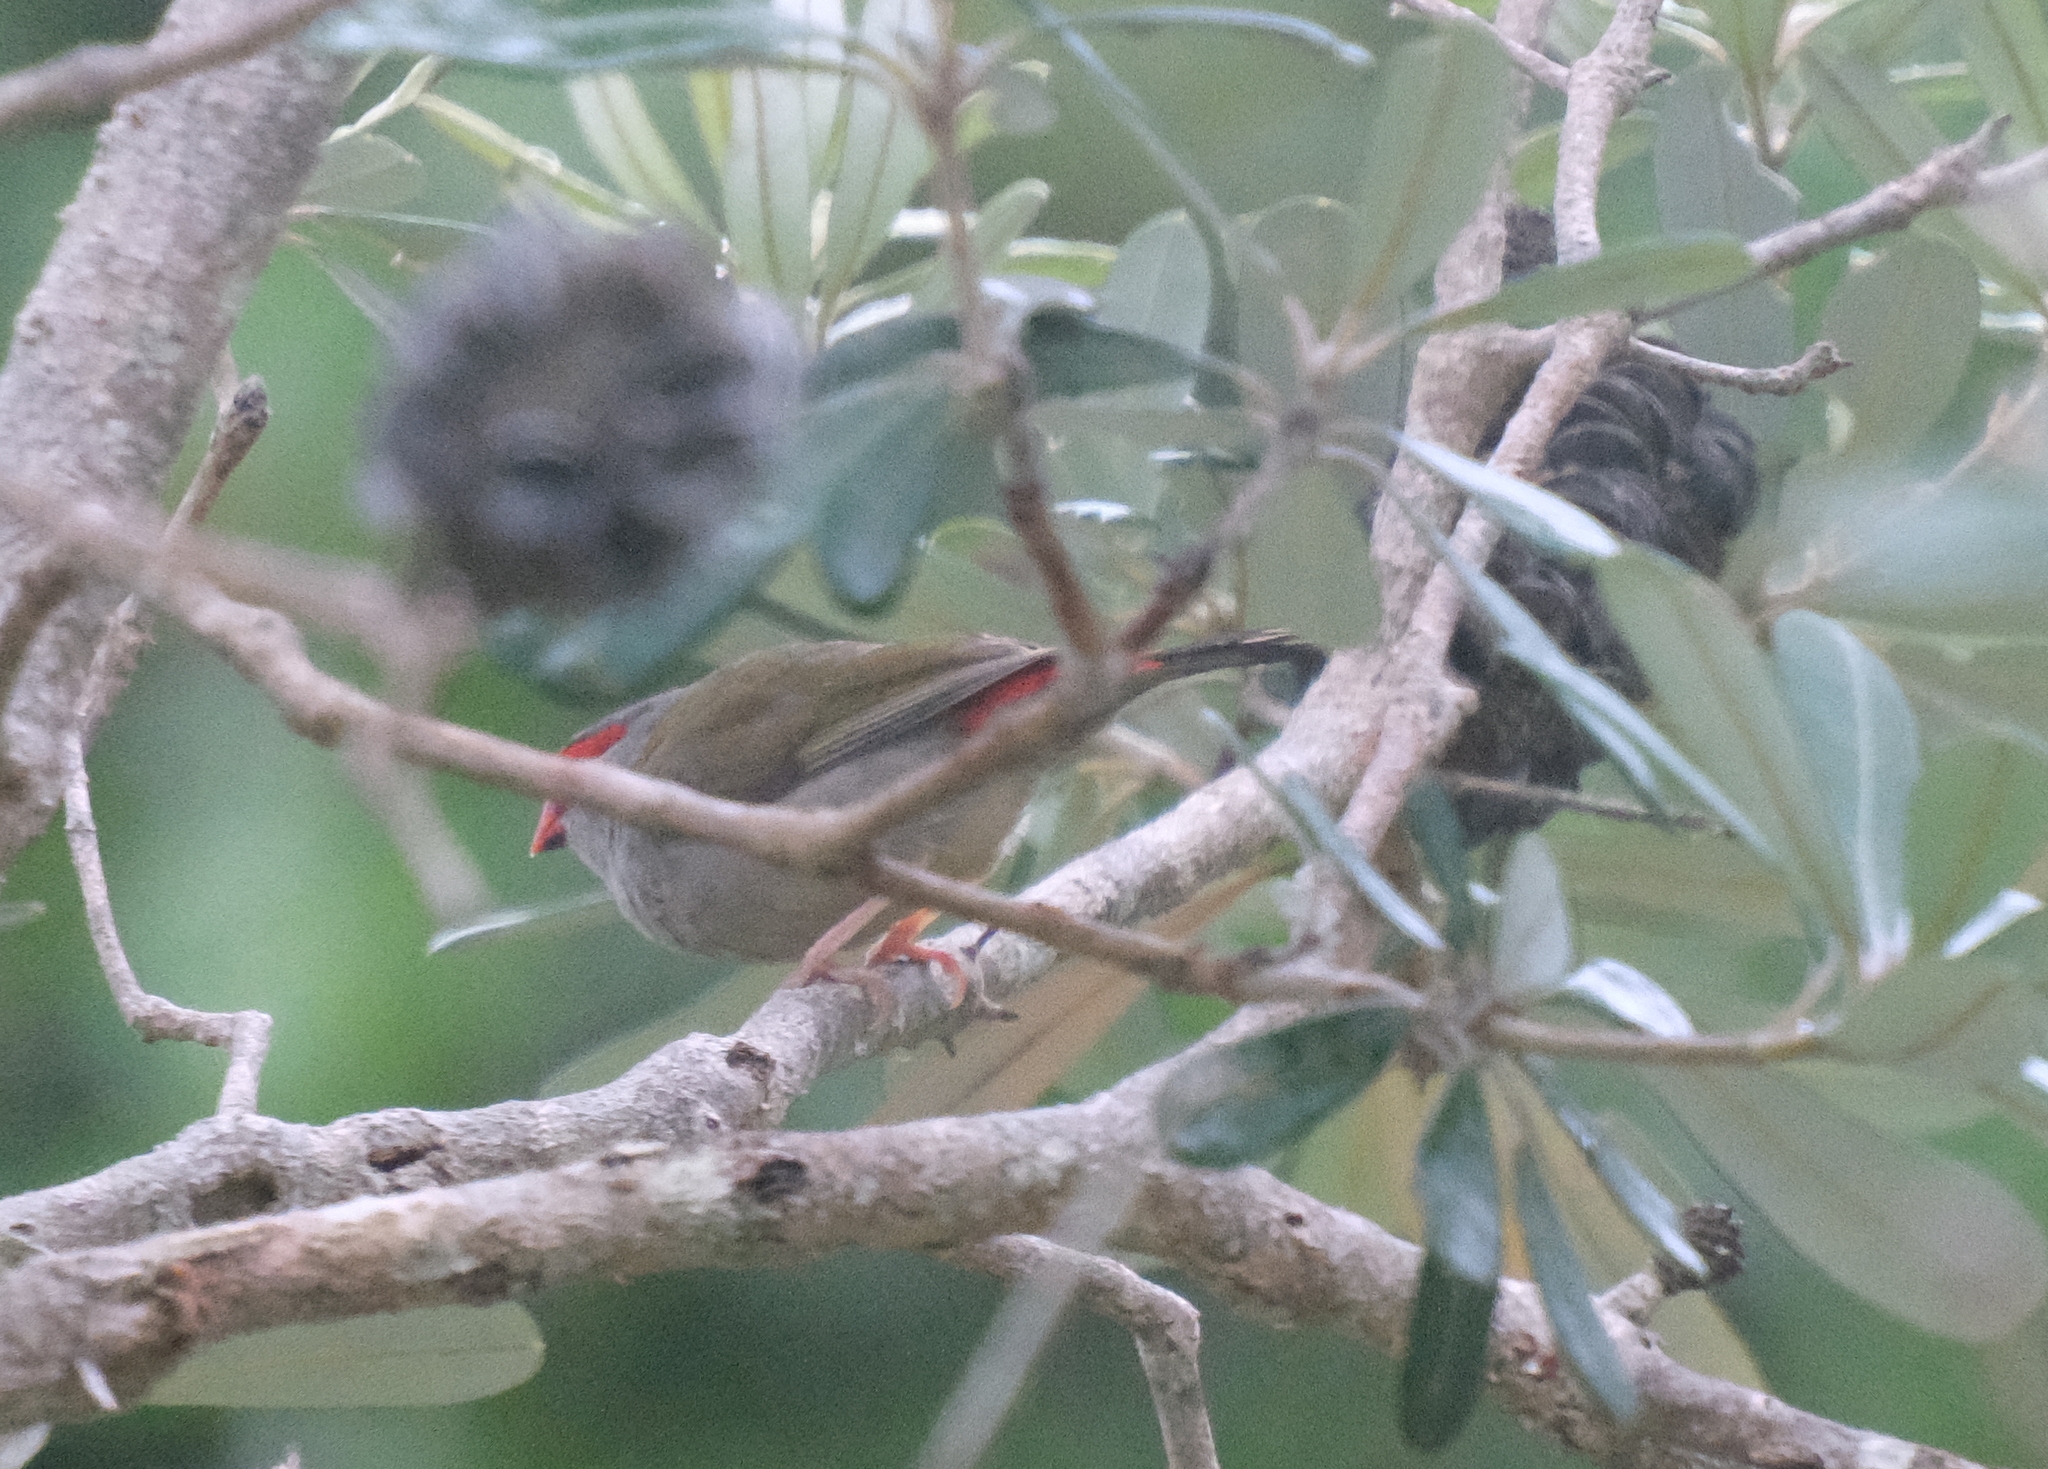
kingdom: Animalia
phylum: Chordata
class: Aves
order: Passeriformes
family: Estrildidae
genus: Neochmia
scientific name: Neochmia temporalis
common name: Red-browed finch
